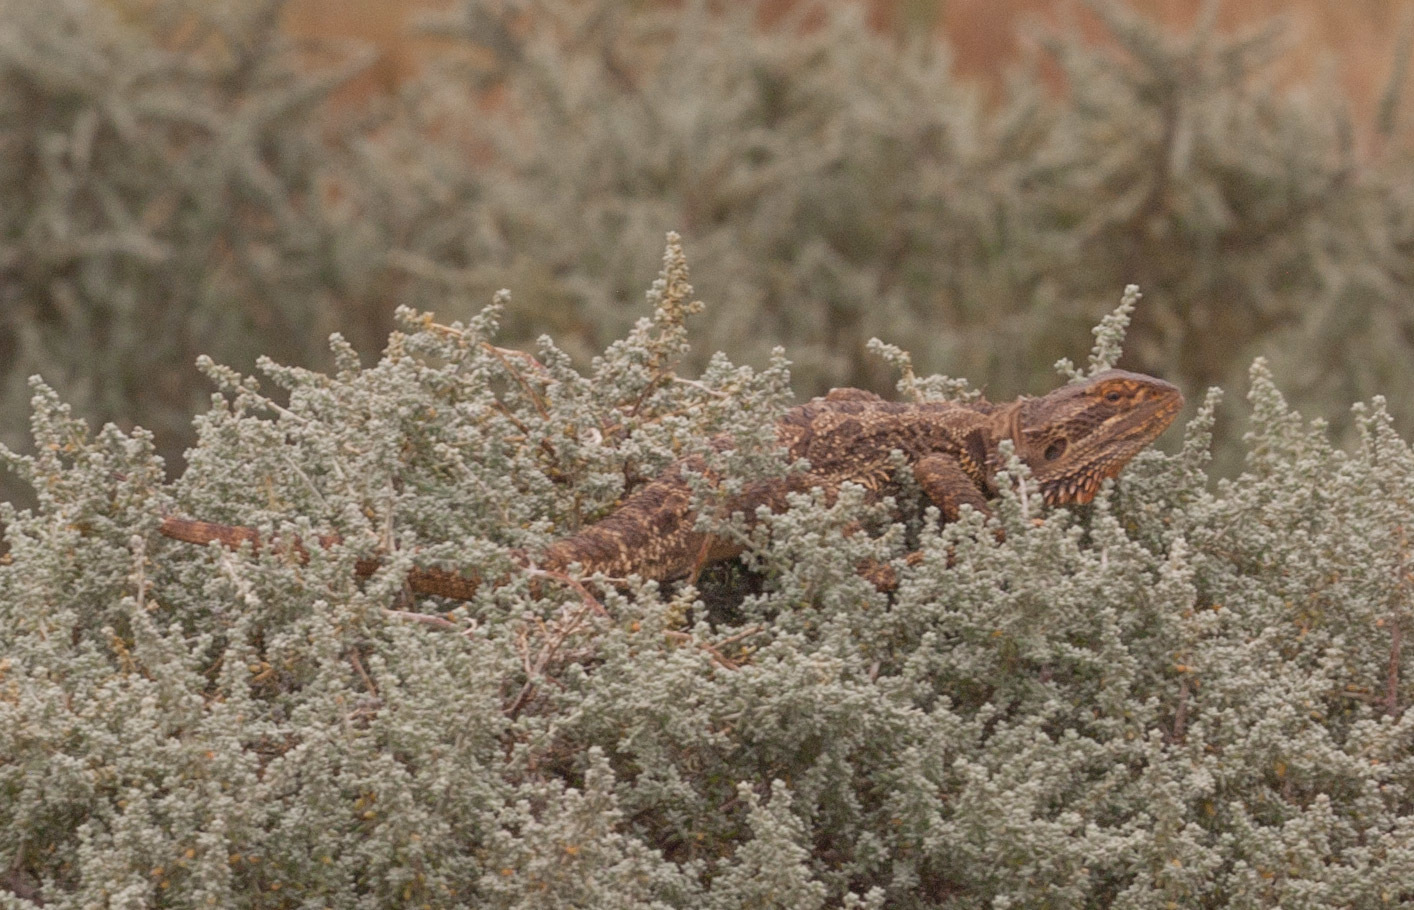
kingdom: Animalia
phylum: Chordata
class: Squamata
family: Agamidae
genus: Pogona
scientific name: Pogona vitticeps
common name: Central bearded dragon
